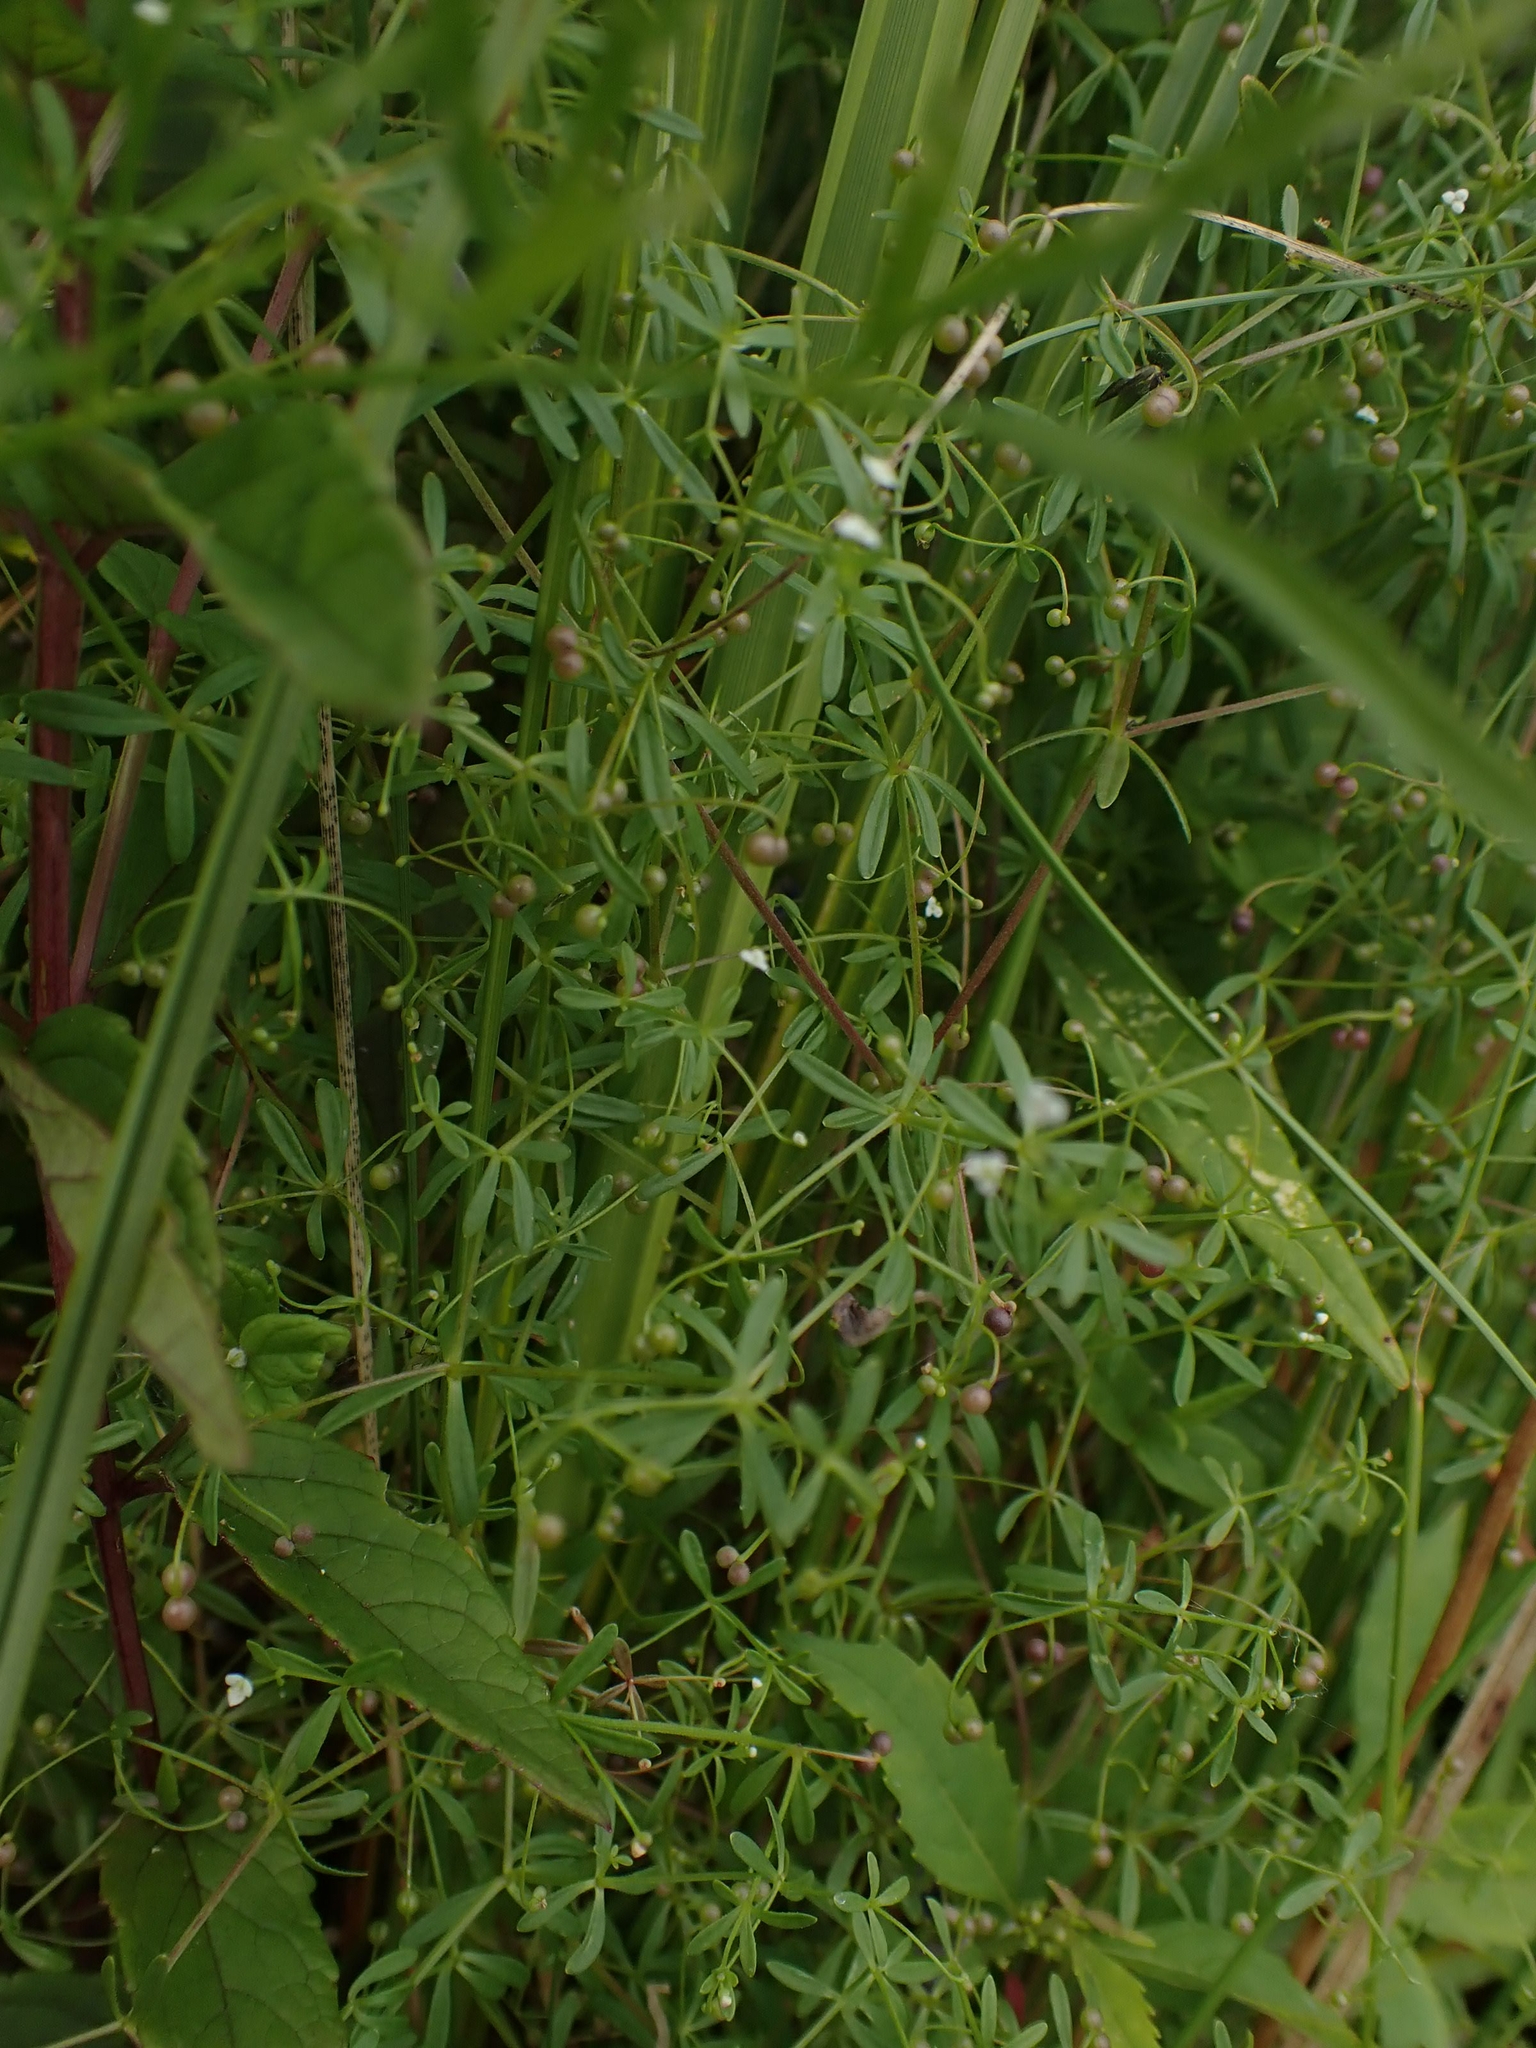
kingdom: Plantae
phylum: Tracheophyta
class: Magnoliopsida
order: Gentianales
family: Rubiaceae
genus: Galium
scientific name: Galium trifidum
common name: Small bedstraw
